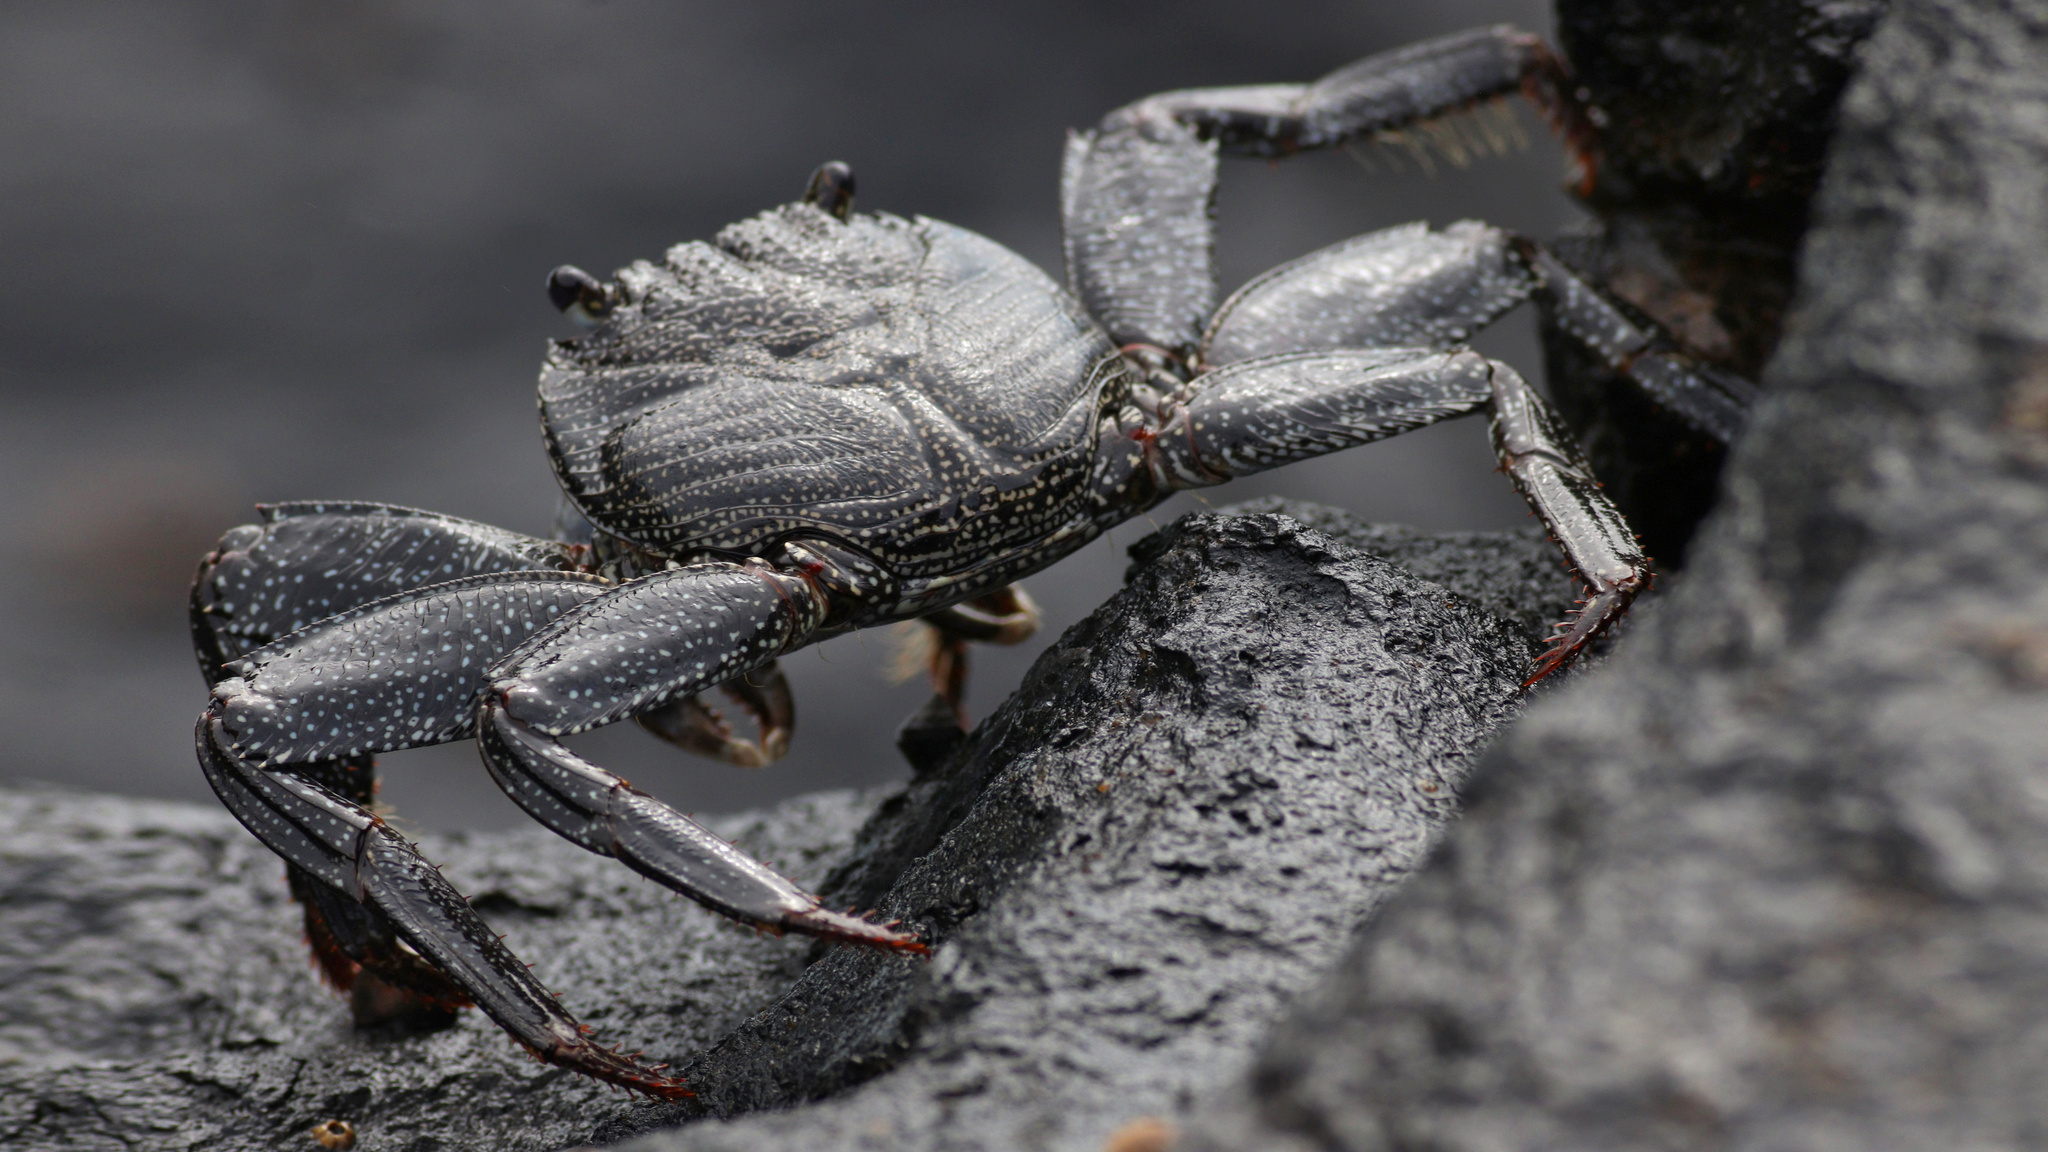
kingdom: Animalia
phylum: Arthropoda
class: Malacostraca
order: Decapoda
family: Grapsidae
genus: Grapsus
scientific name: Grapsus adscensionis
